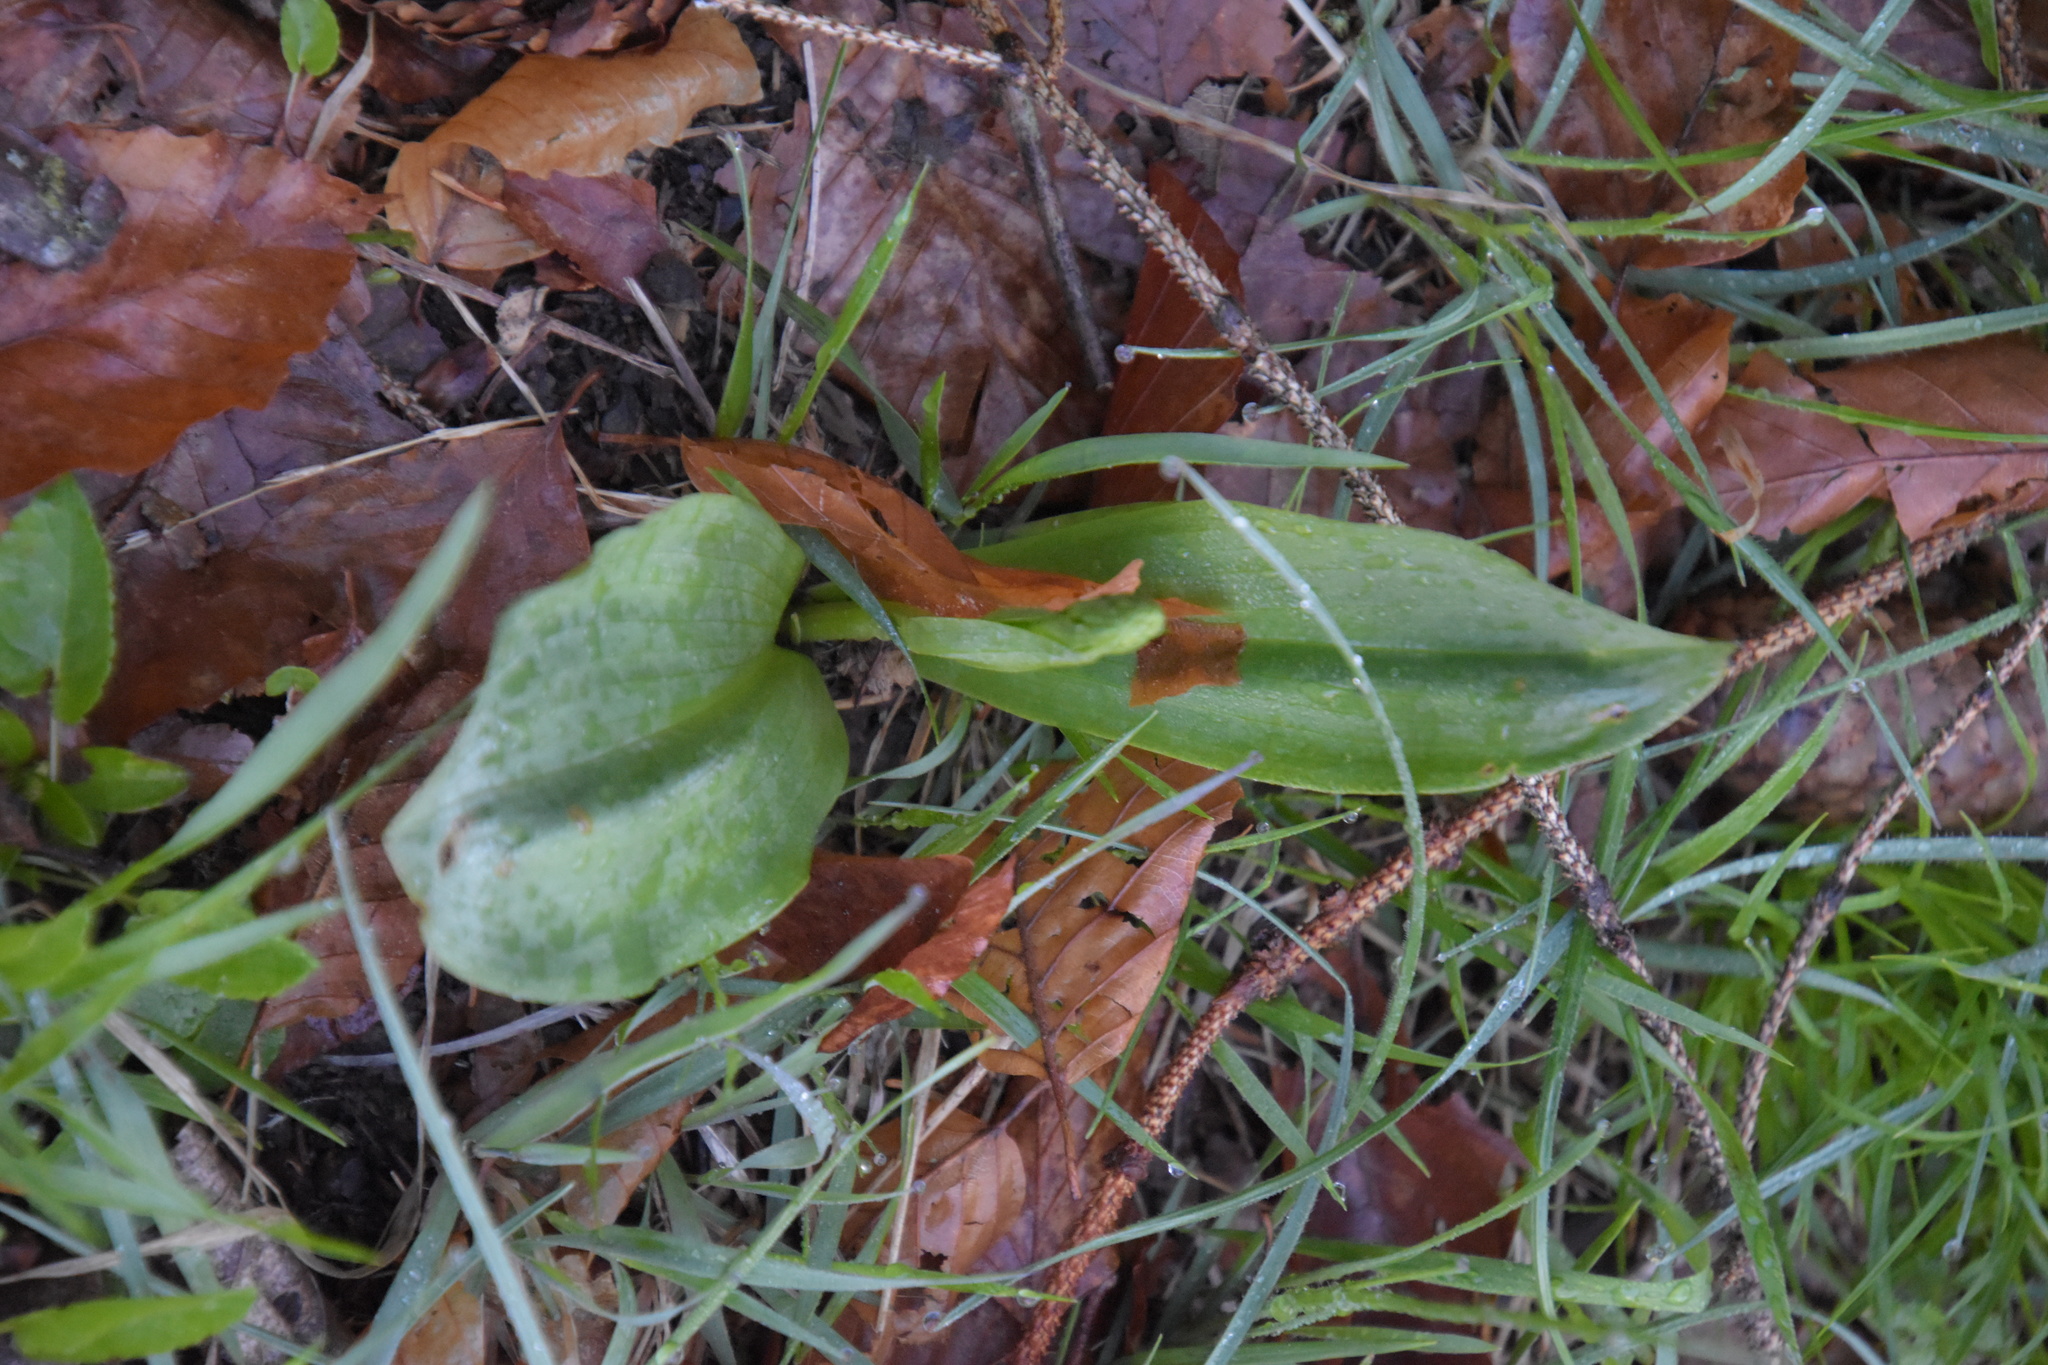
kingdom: Plantae
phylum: Tracheophyta
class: Liliopsida
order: Asparagales
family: Orchidaceae
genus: Neottia
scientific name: Neottia ovata
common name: Common twayblade
